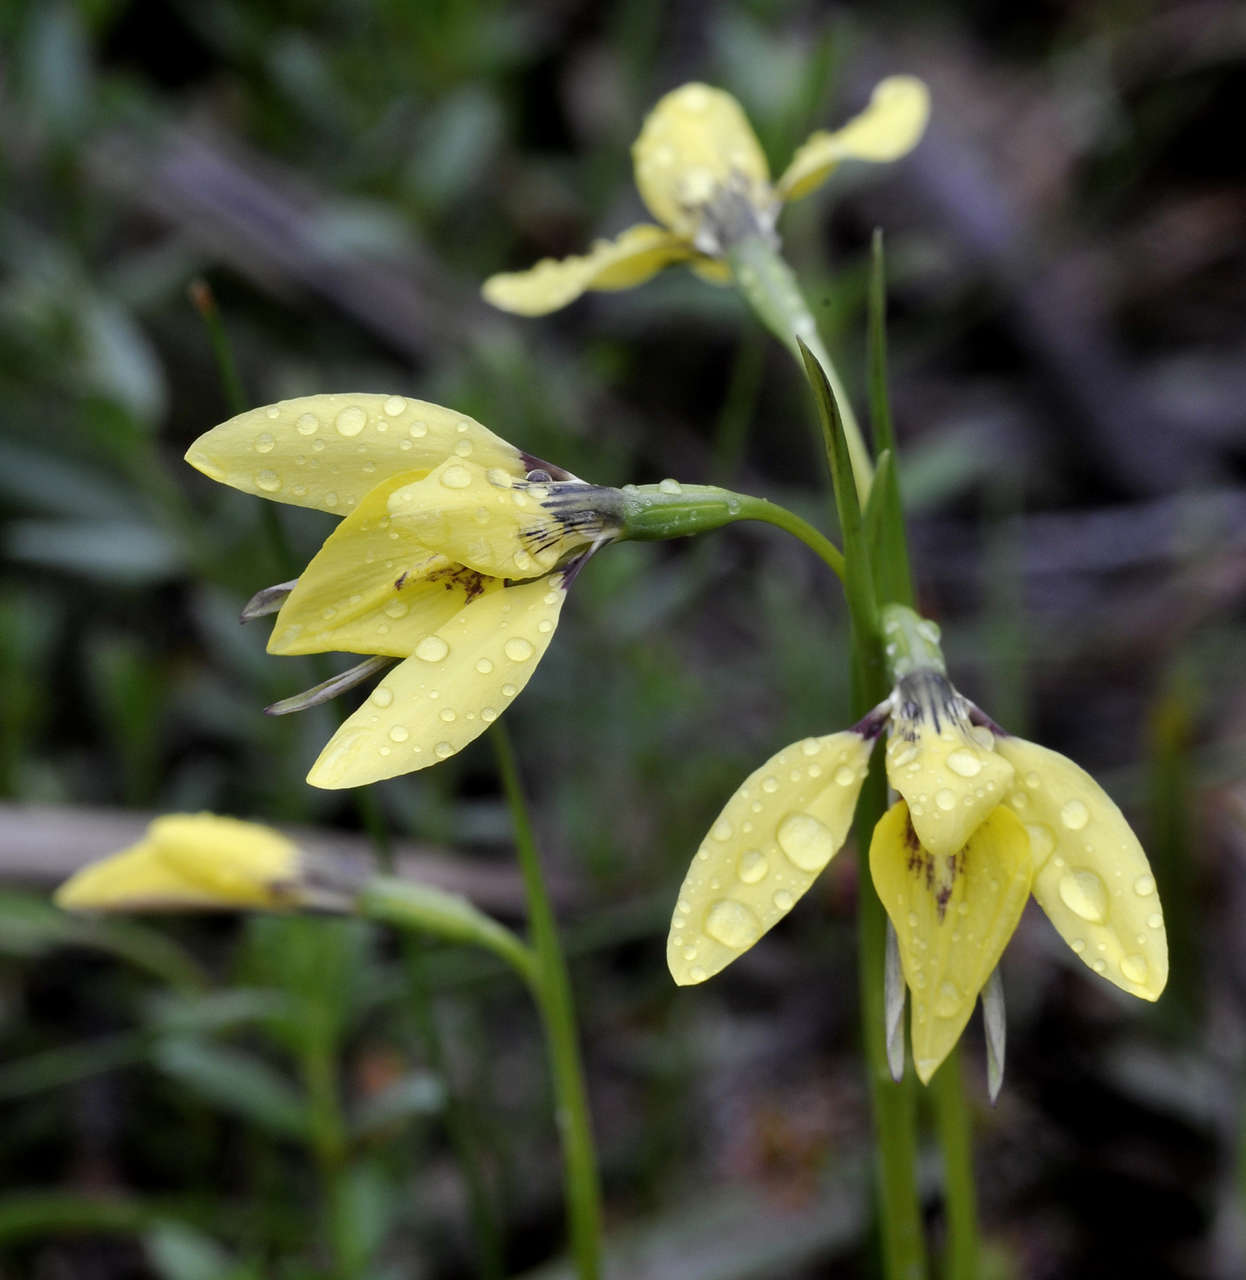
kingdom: Plantae
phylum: Tracheophyta
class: Liliopsida
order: Asparagales
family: Orchidaceae
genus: Diuris
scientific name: Diuris chryseopsis
